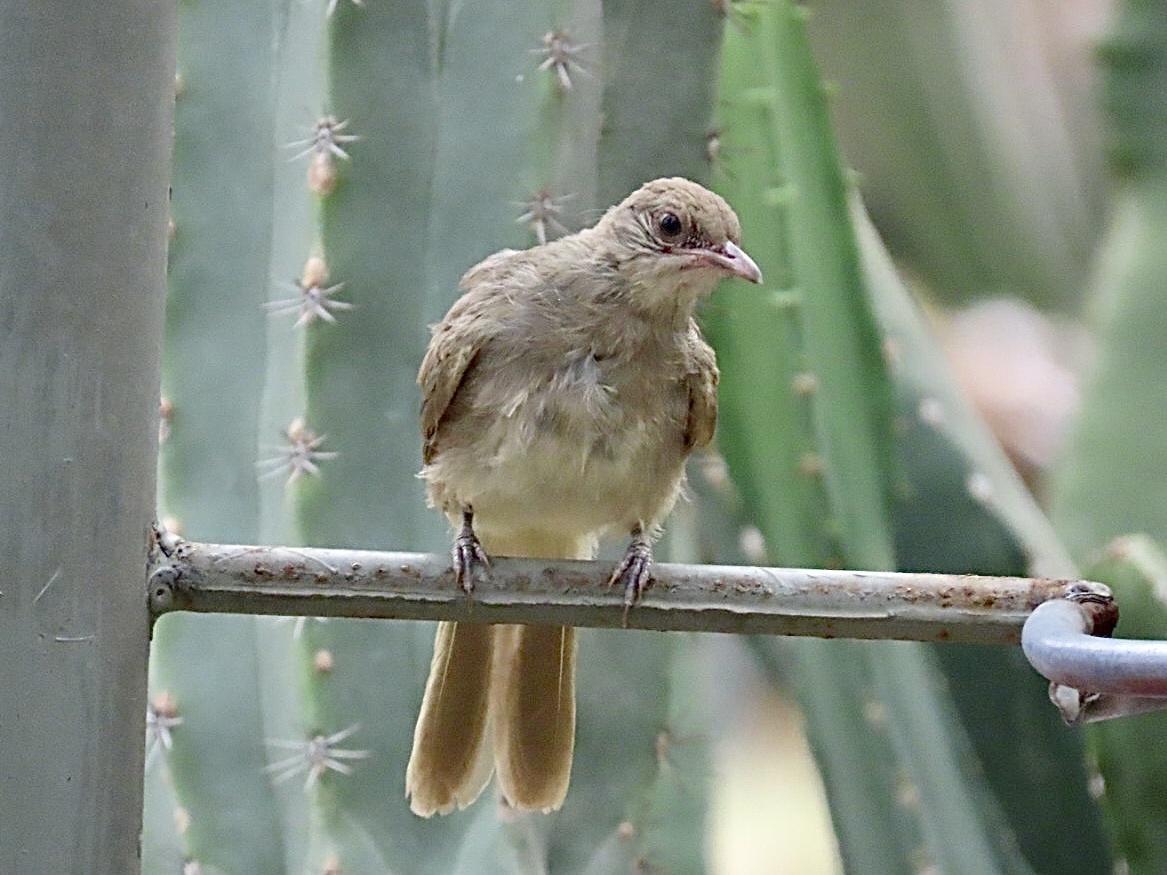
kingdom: Animalia
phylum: Chordata
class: Aves
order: Passeriformes
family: Pycnonotidae
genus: Pycnonotus
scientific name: Pycnonotus blanfordi
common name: Streak-eared bulbul
